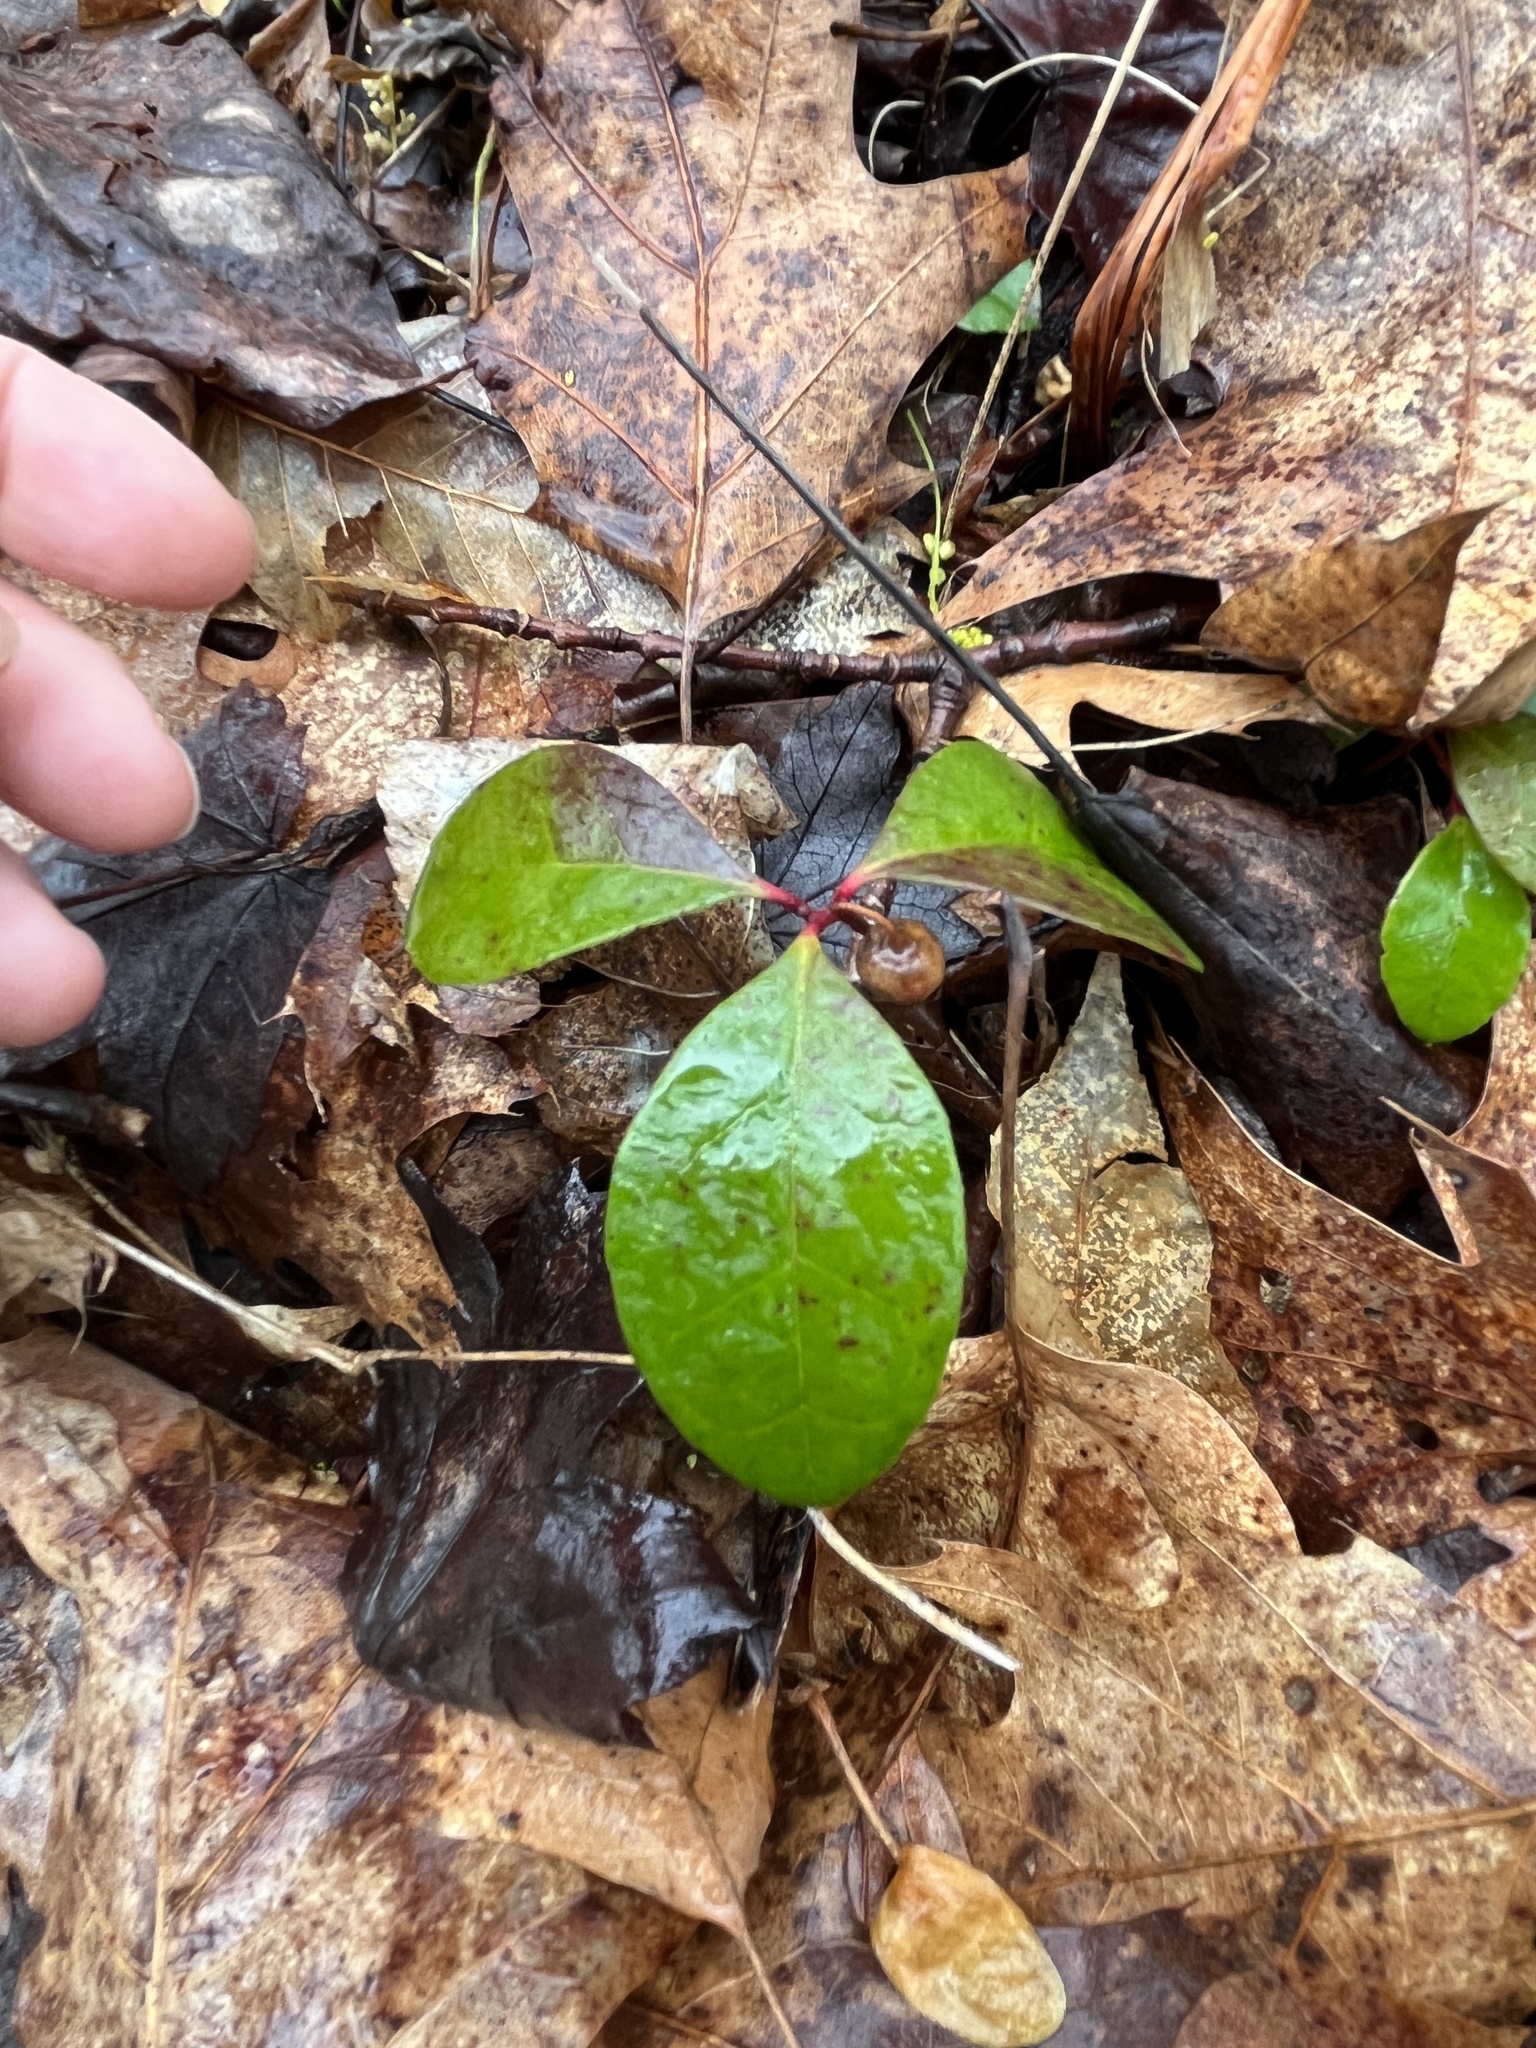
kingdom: Plantae
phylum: Tracheophyta
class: Magnoliopsida
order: Ericales
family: Ericaceae
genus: Gaultheria
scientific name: Gaultheria procumbens
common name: Checkerberry
